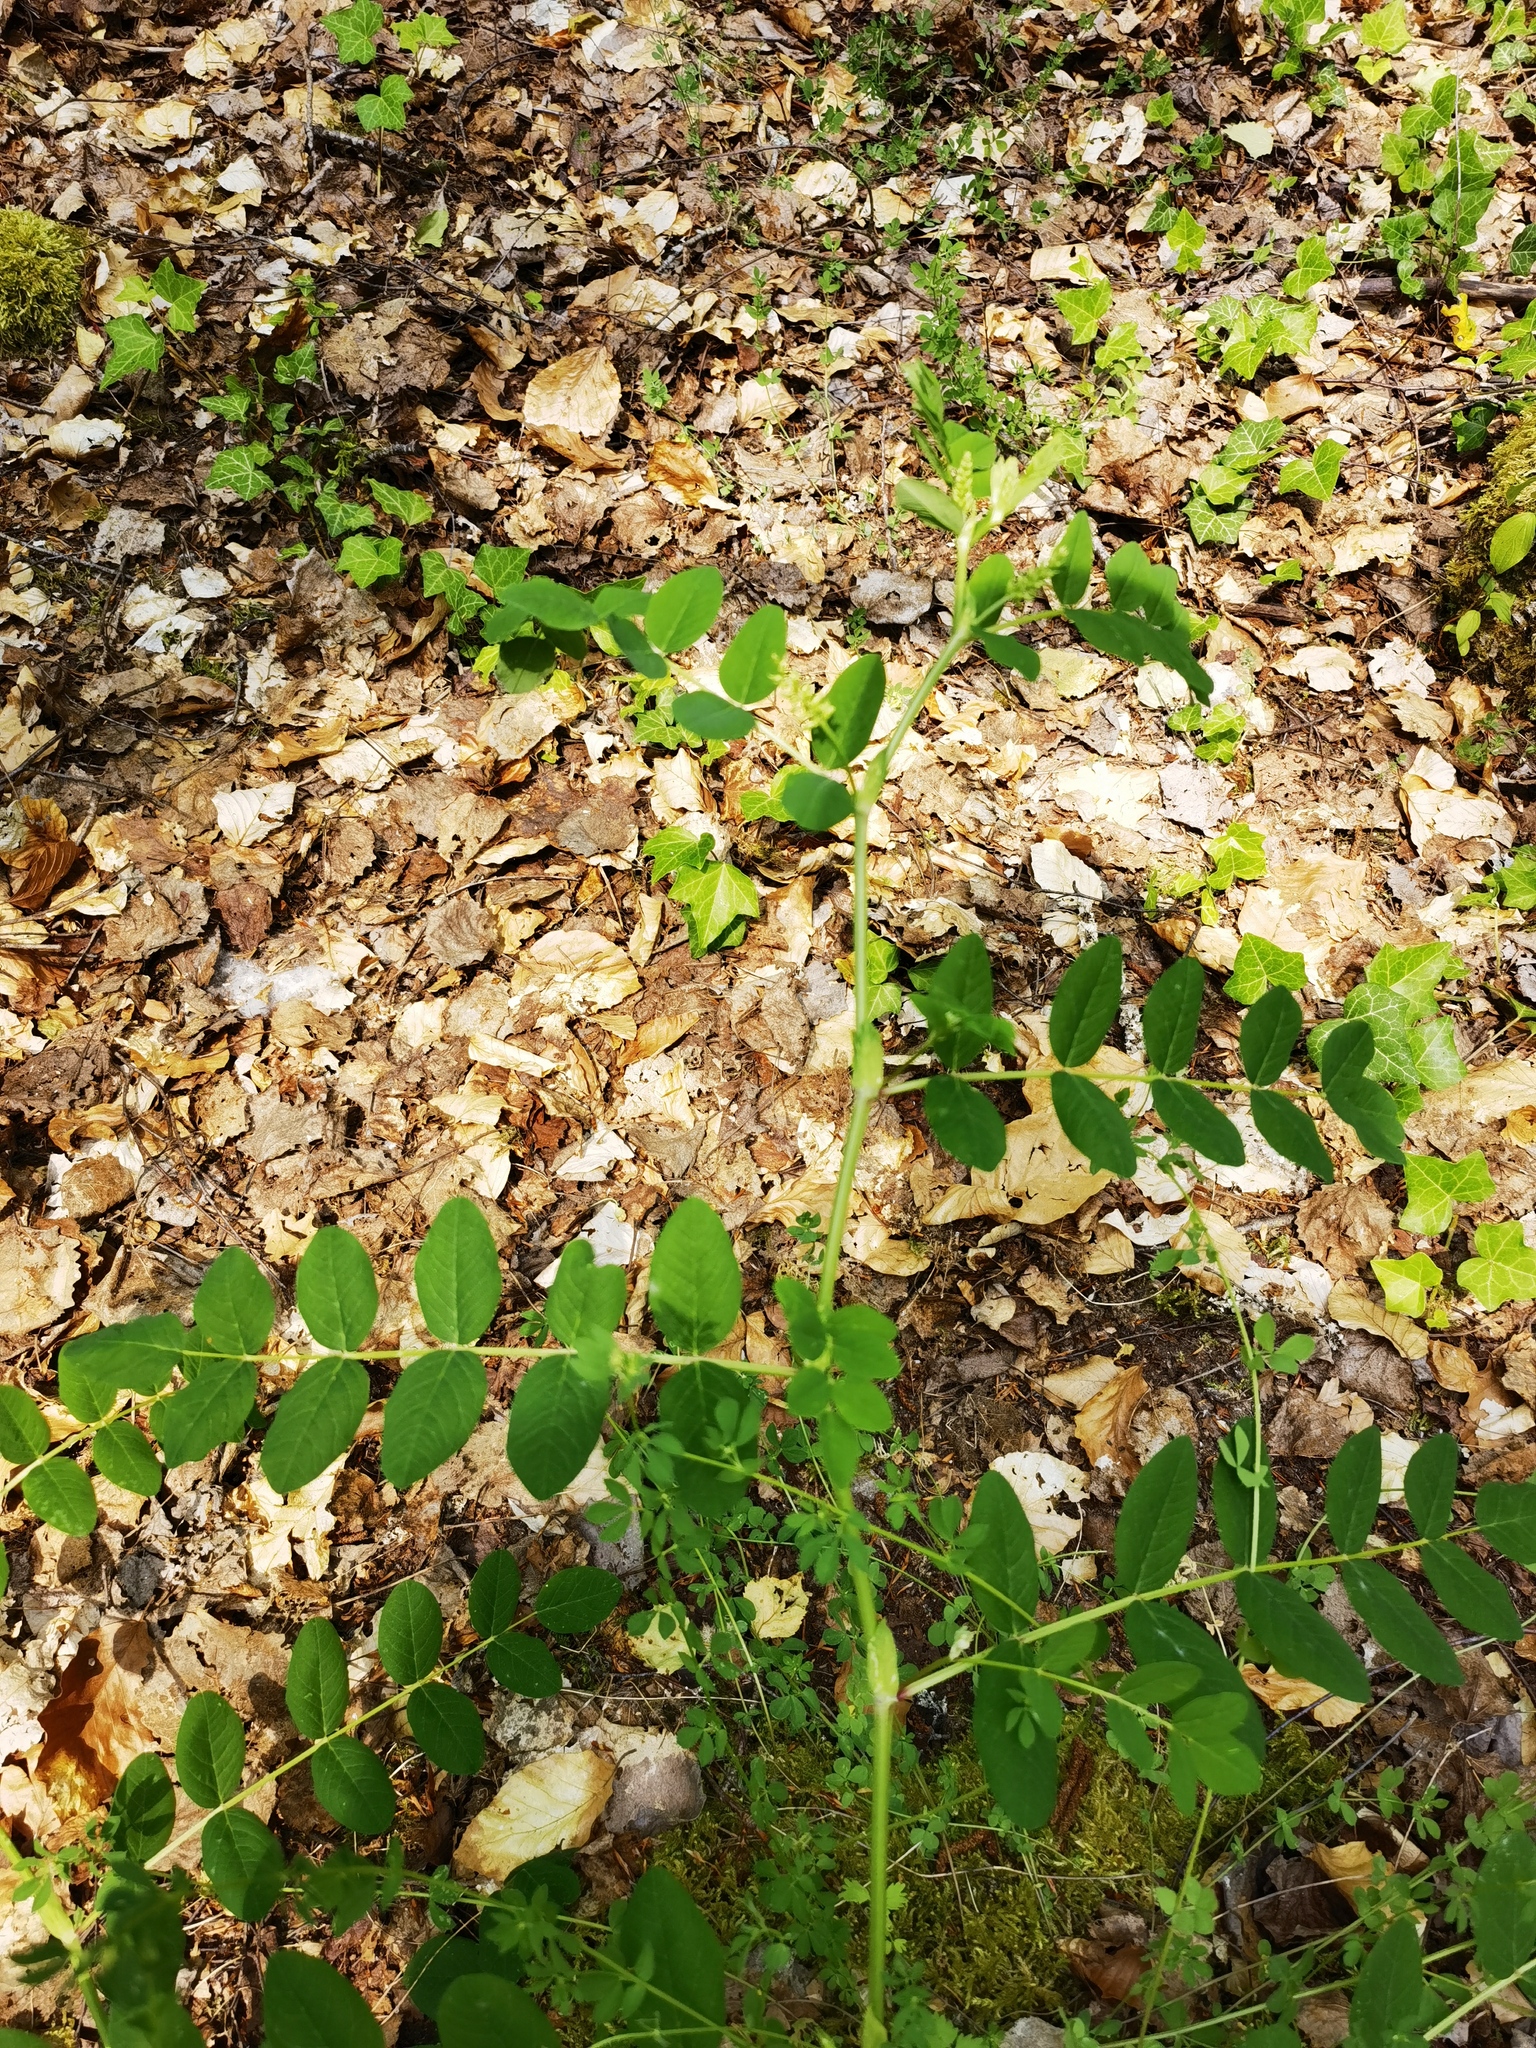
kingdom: Plantae
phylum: Tracheophyta
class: Magnoliopsida
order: Fabales
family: Fabaceae
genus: Astragalus
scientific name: Astragalus glycyphyllos
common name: Wild liquorice
